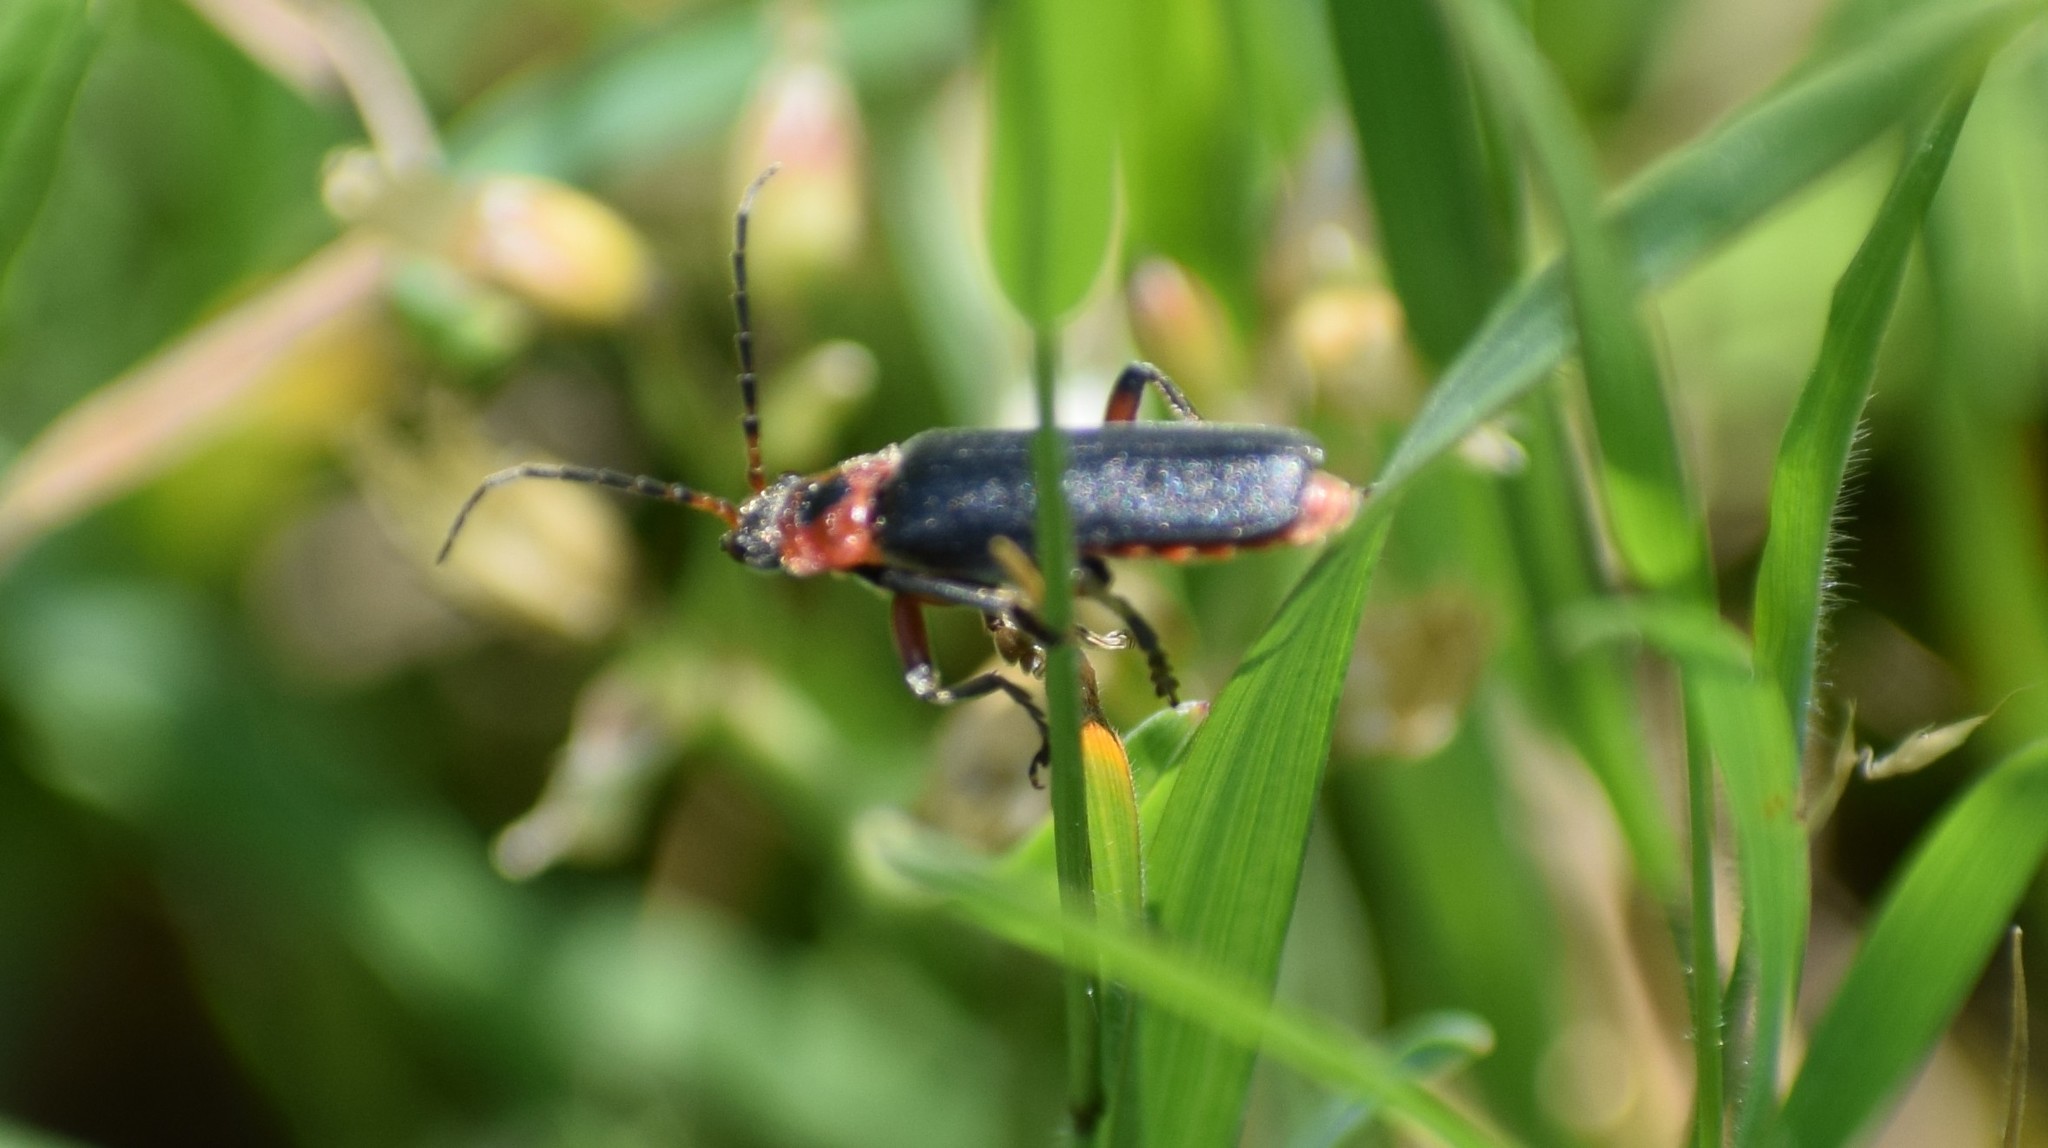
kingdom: Animalia
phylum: Arthropoda
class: Insecta
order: Coleoptera
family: Cantharidae
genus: Cantharis
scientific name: Cantharis rustica
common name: Soldier beetle
